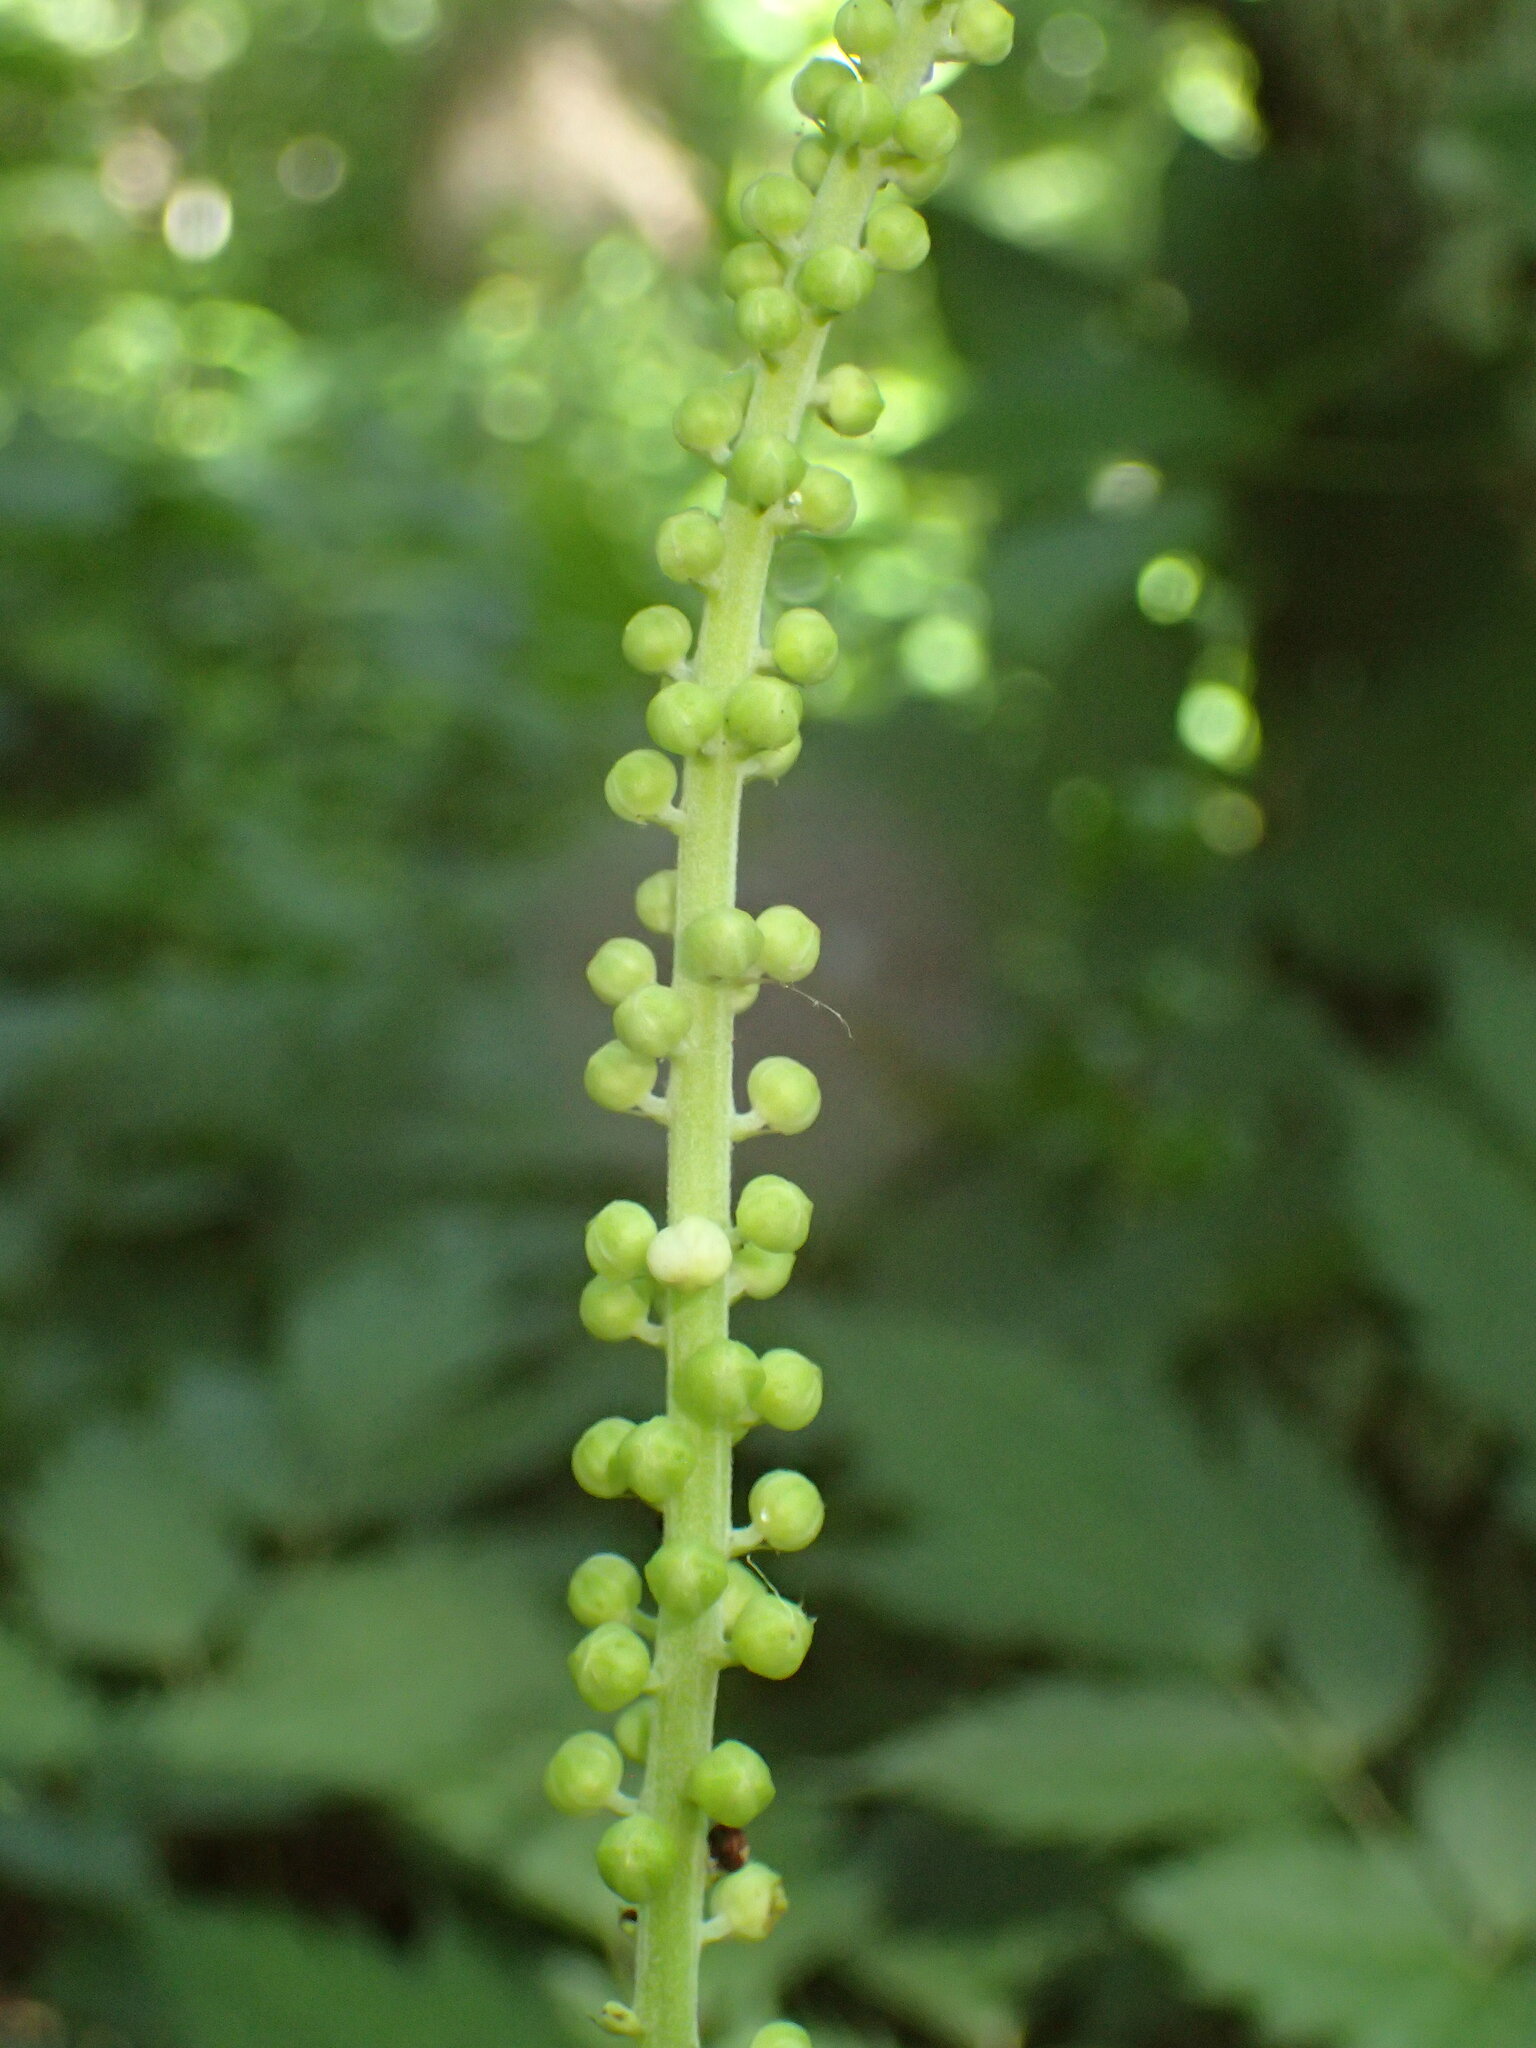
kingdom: Plantae
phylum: Tracheophyta
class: Magnoliopsida
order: Ranunculales
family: Ranunculaceae
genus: Actaea
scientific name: Actaea racemosa
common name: Black cohosh
